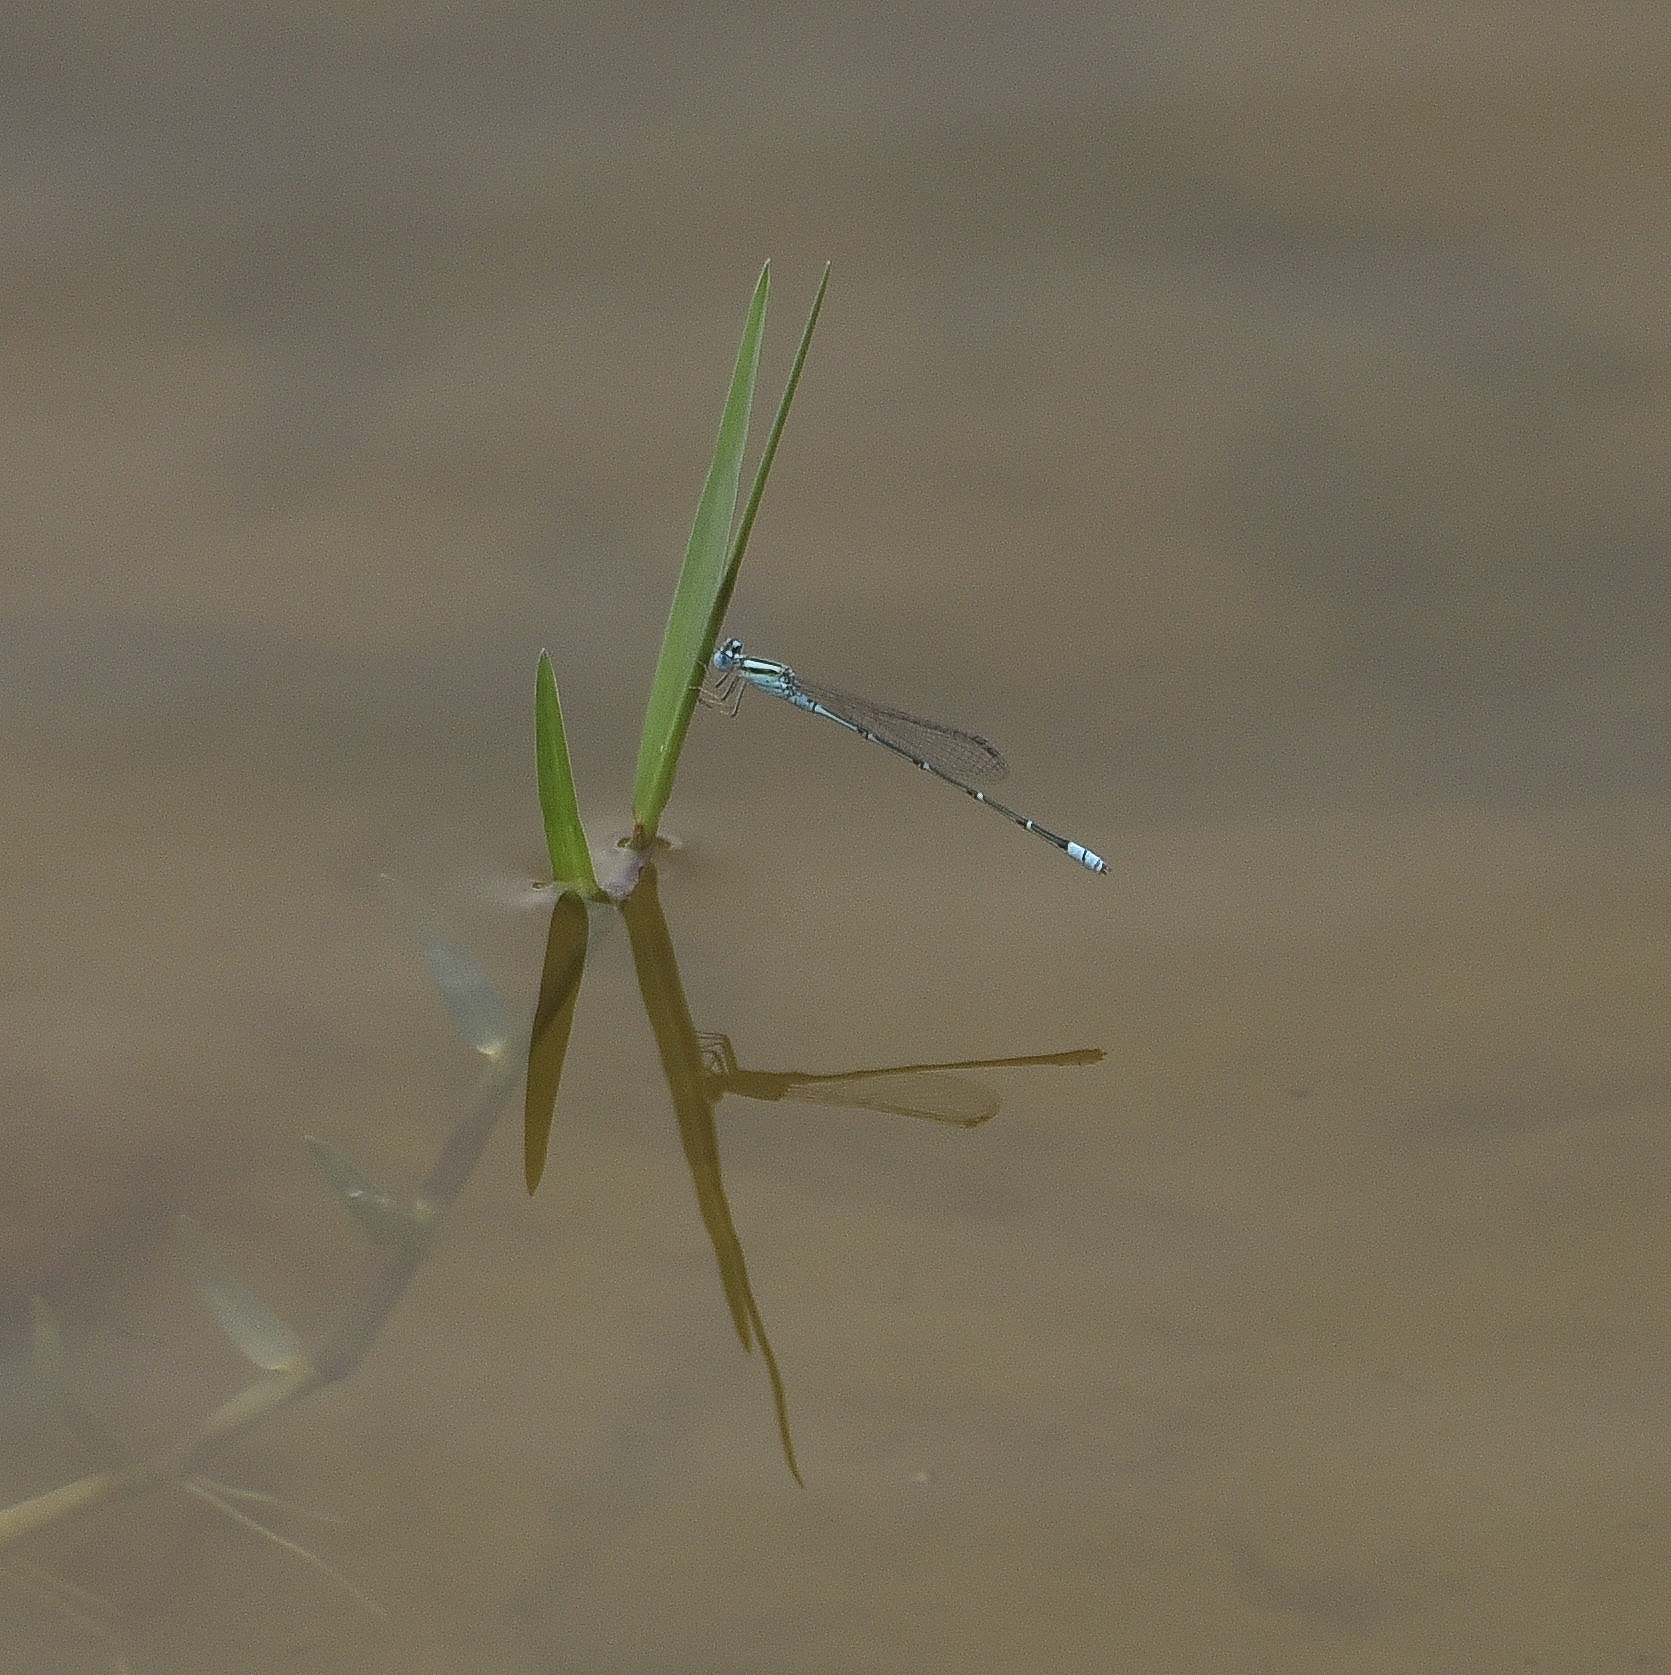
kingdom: Animalia
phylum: Arthropoda
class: Insecta
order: Odonata
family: Coenagrionidae
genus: Pseudagrion
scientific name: Pseudagrion microcephalum
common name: Blue riverdamsel
